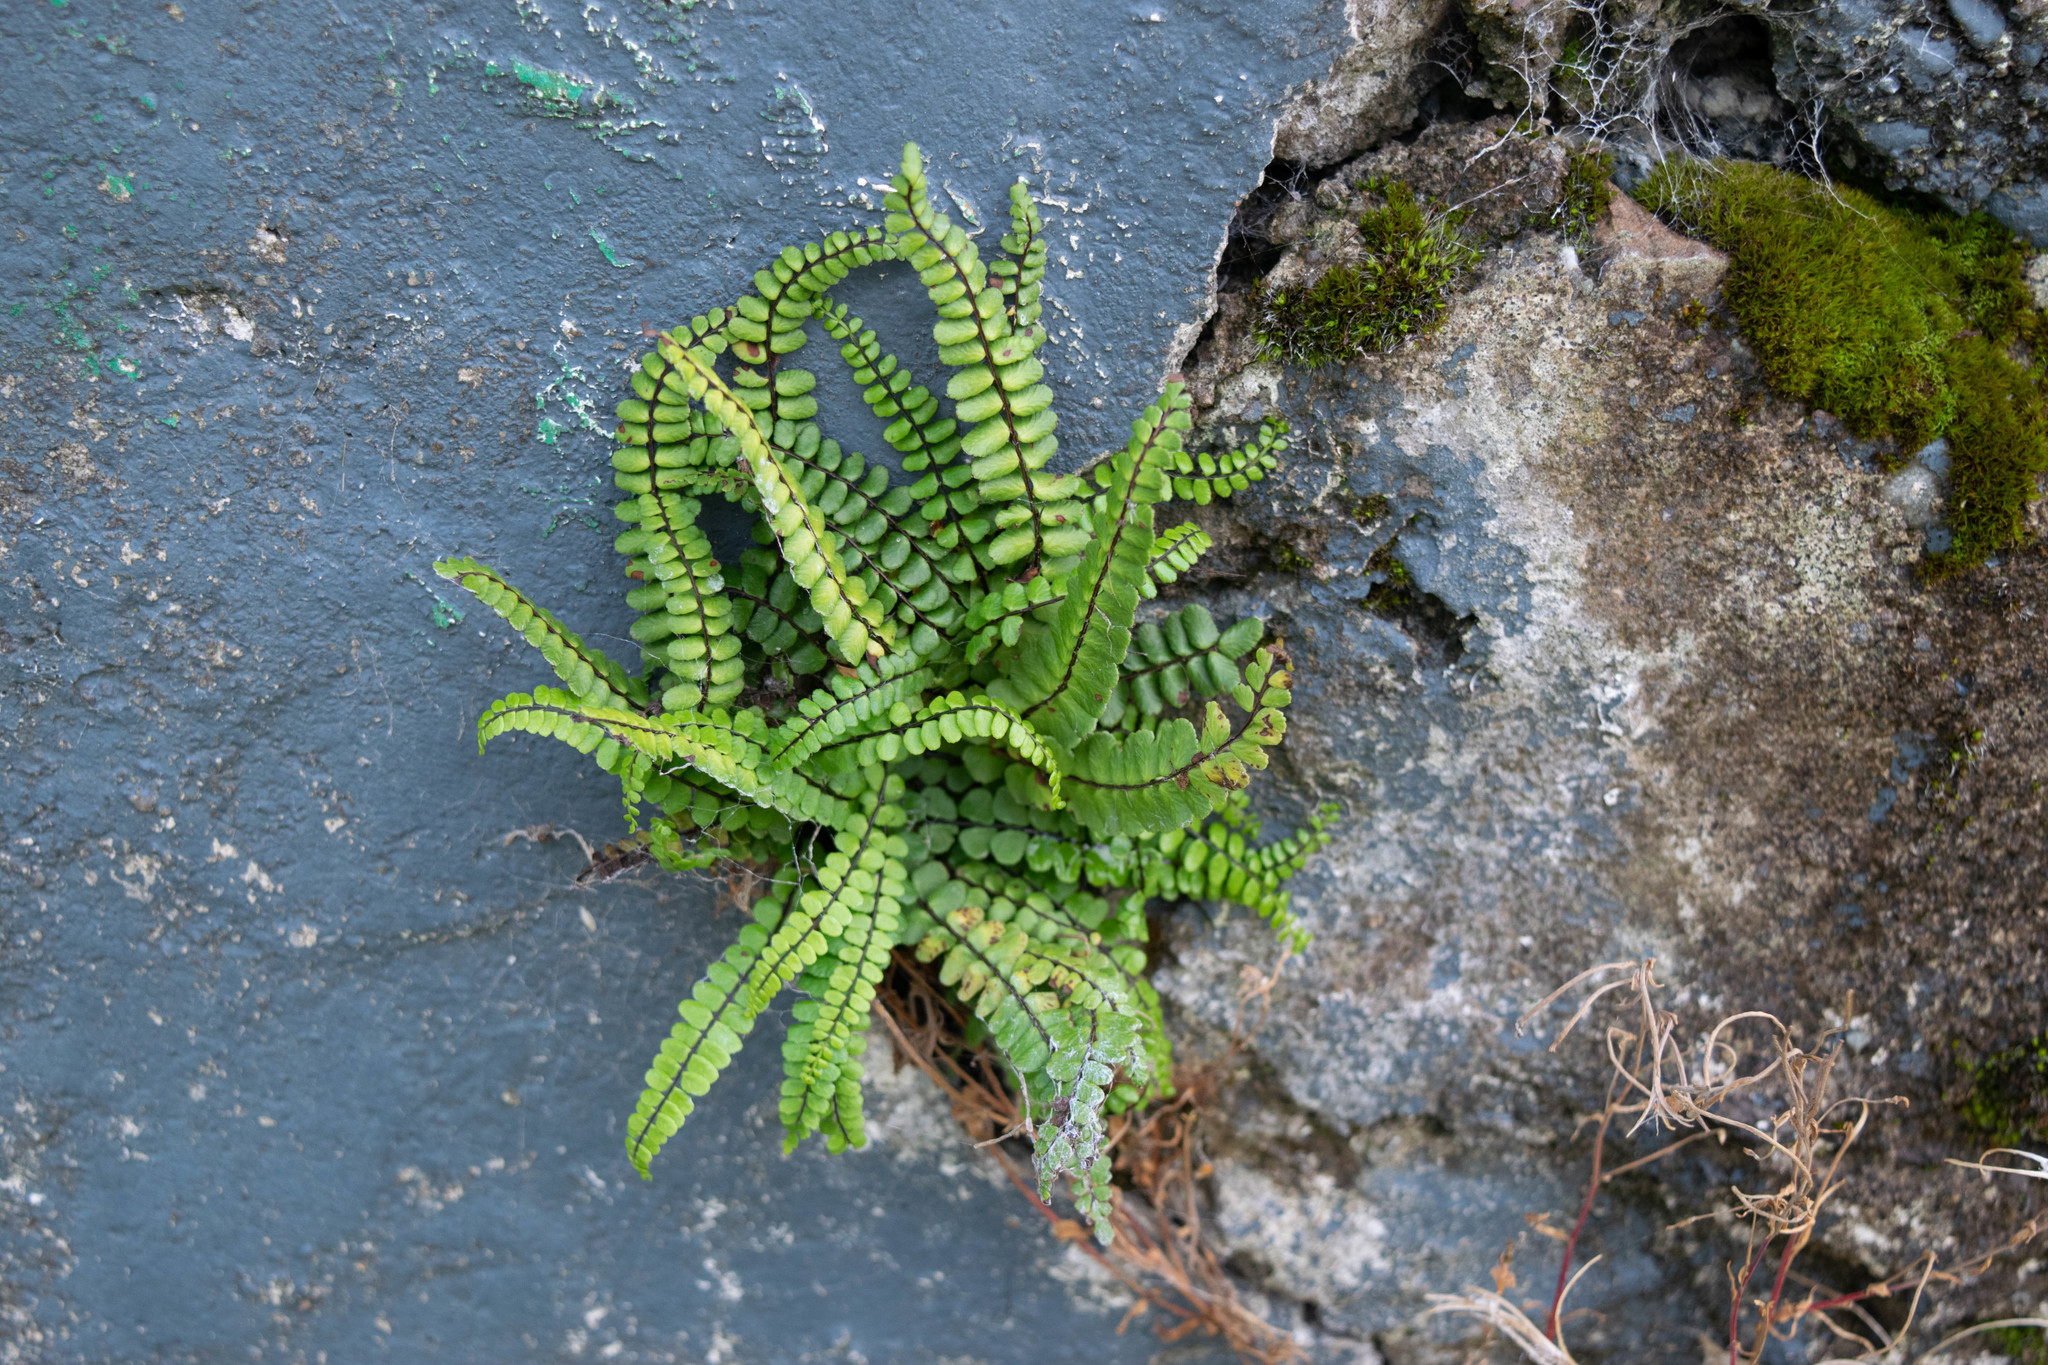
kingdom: Plantae
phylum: Tracheophyta
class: Polypodiopsida
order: Polypodiales
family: Aspleniaceae
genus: Asplenium
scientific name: Asplenium trichomanes
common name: Maidenhair spleenwort
